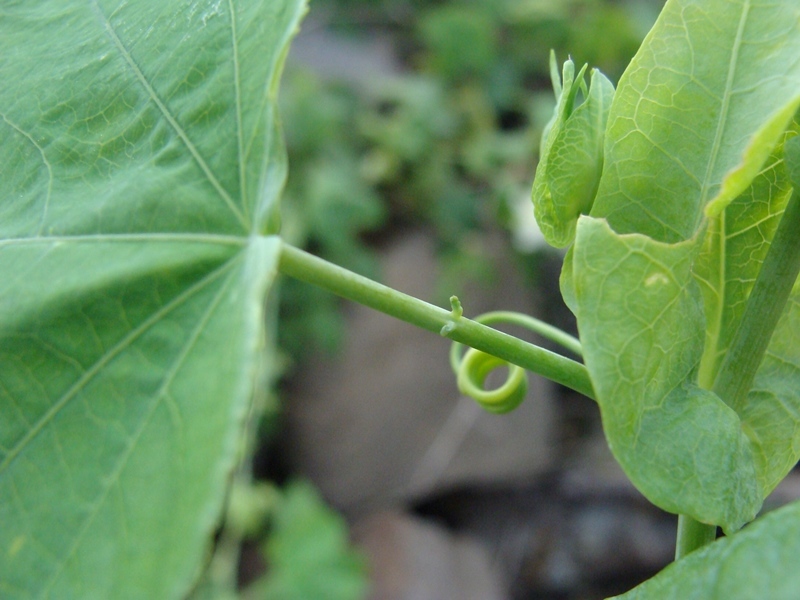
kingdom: Plantae
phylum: Tracheophyta
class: Magnoliopsida
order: Malpighiales
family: Passifloraceae
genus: Passiflora
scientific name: Passiflora subpeltata
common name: White passionflower
